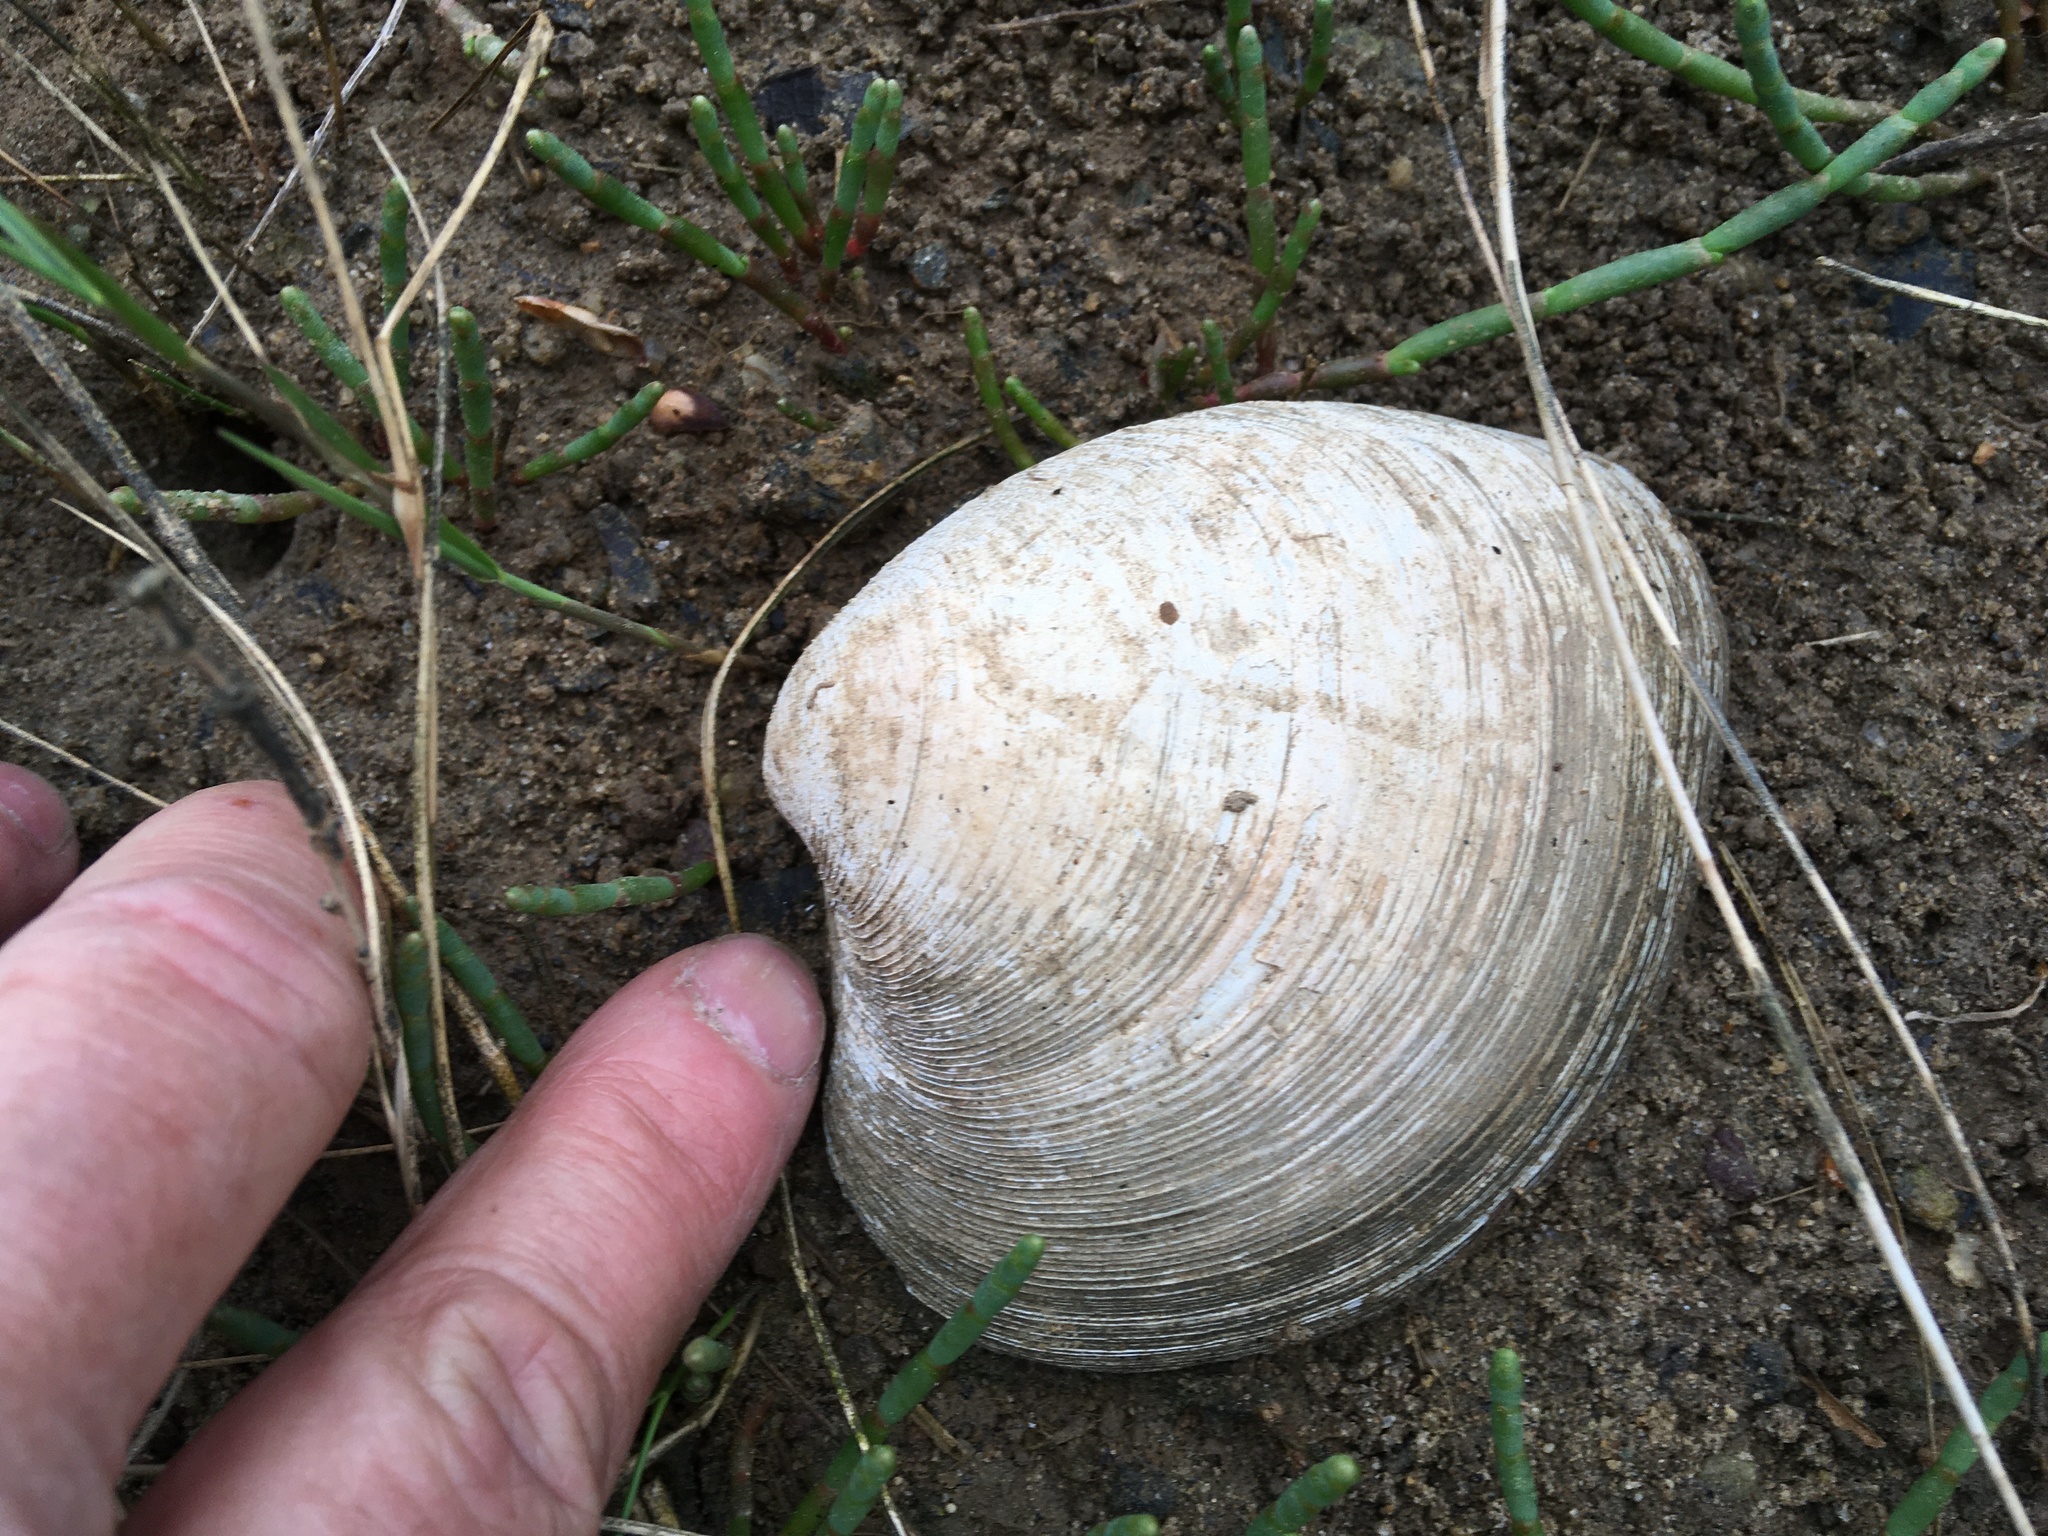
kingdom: Animalia
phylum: Mollusca
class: Bivalvia
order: Venerida
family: Veneridae
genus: Mercenaria
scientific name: Mercenaria mercenaria
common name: American hard-shelled clam
